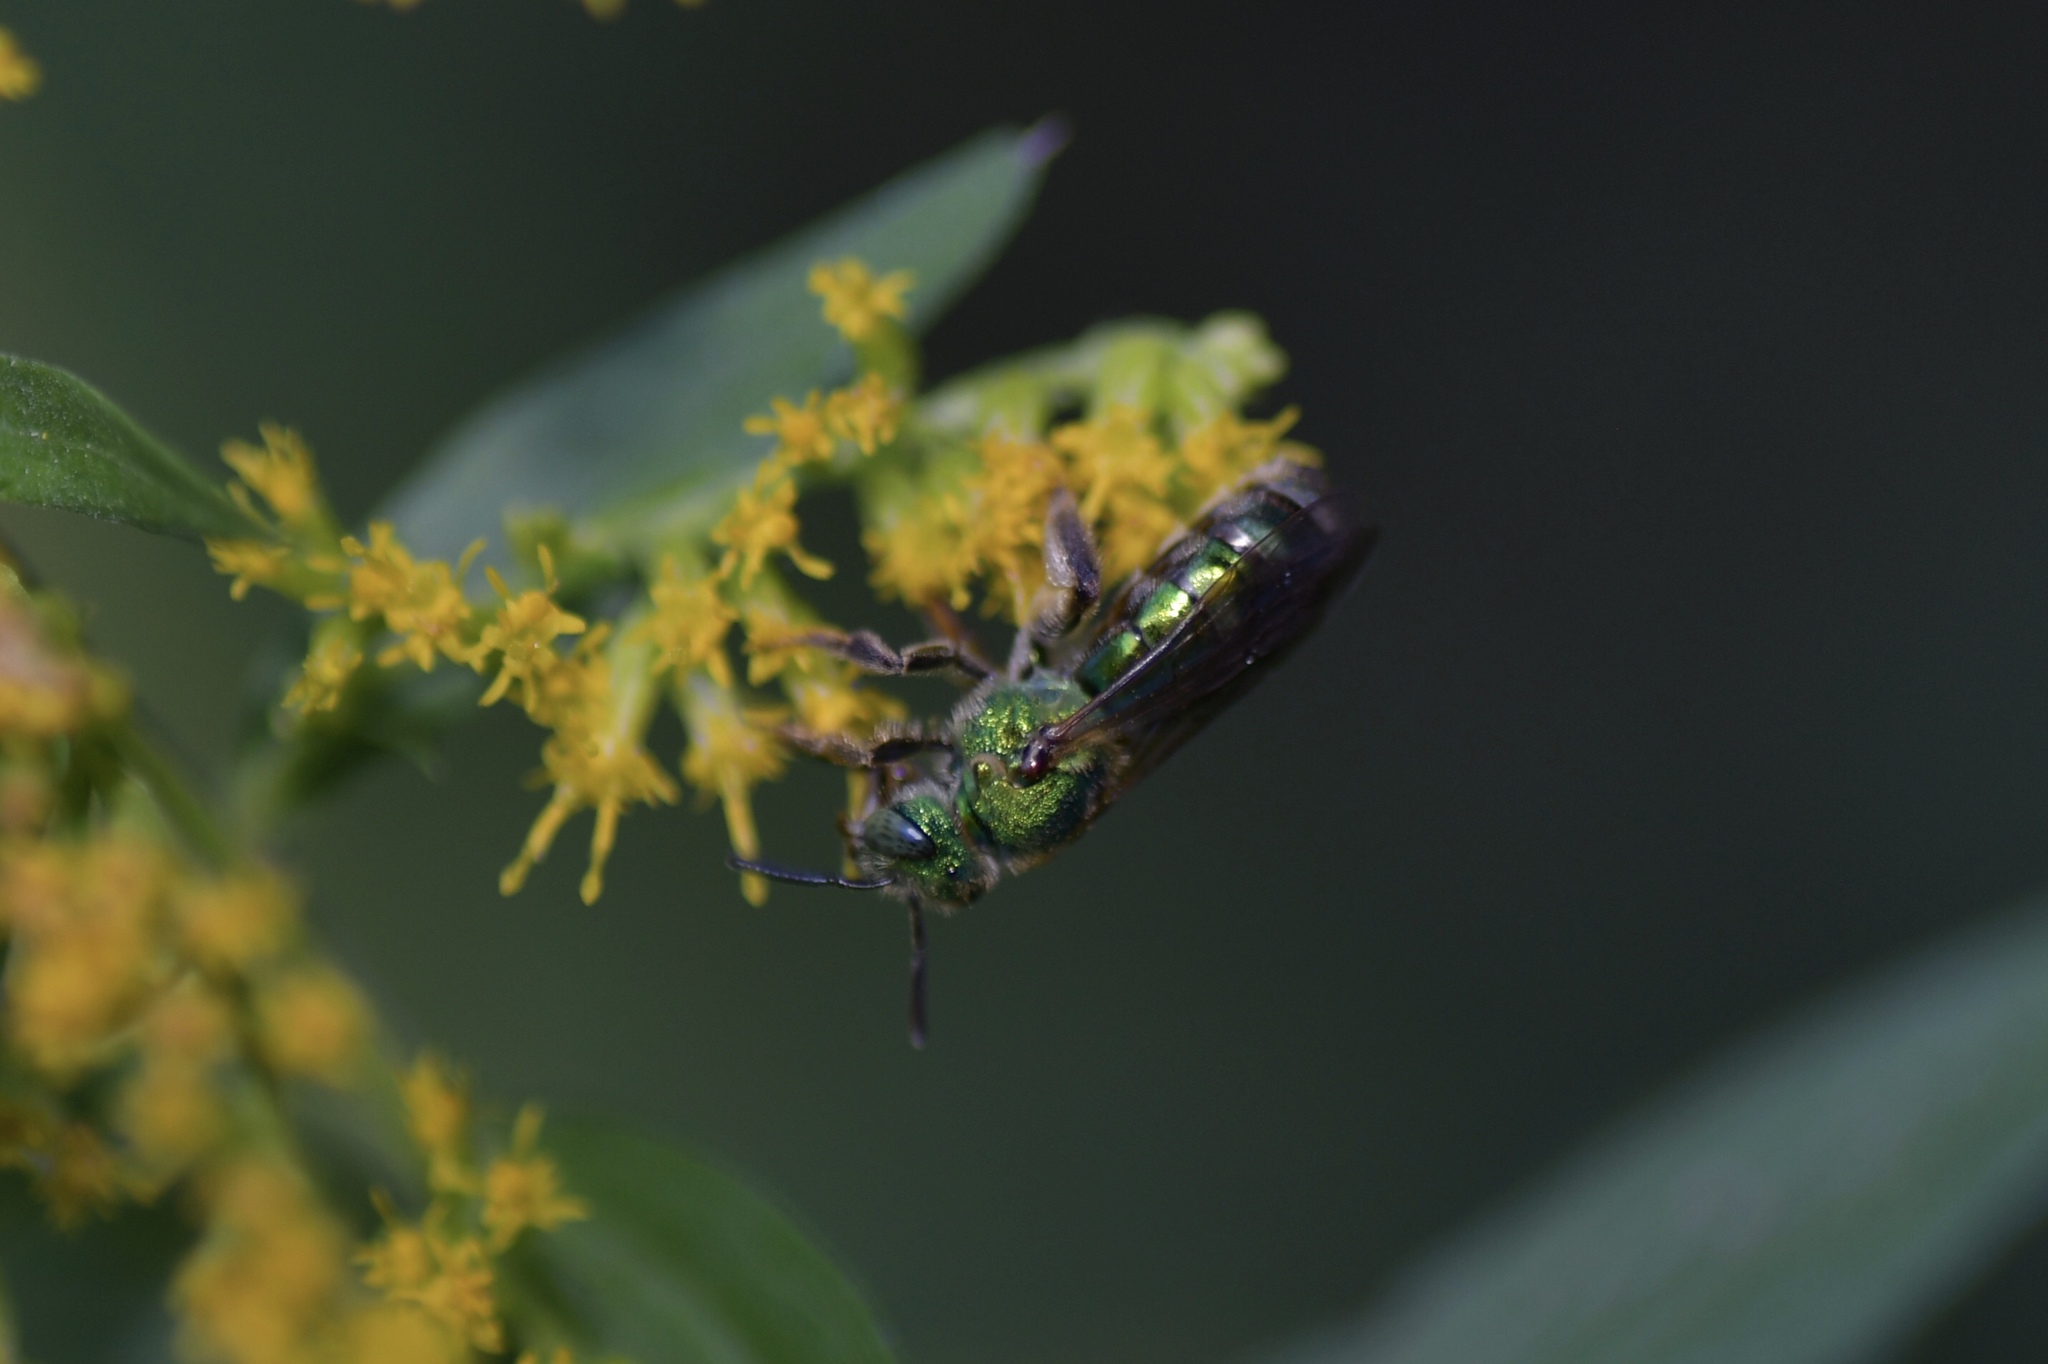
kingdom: Animalia
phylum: Arthropoda
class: Insecta
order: Hymenoptera
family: Halictidae
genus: Agapostemon
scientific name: Agapostemon sericeus
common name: Silky striped sweat bee
